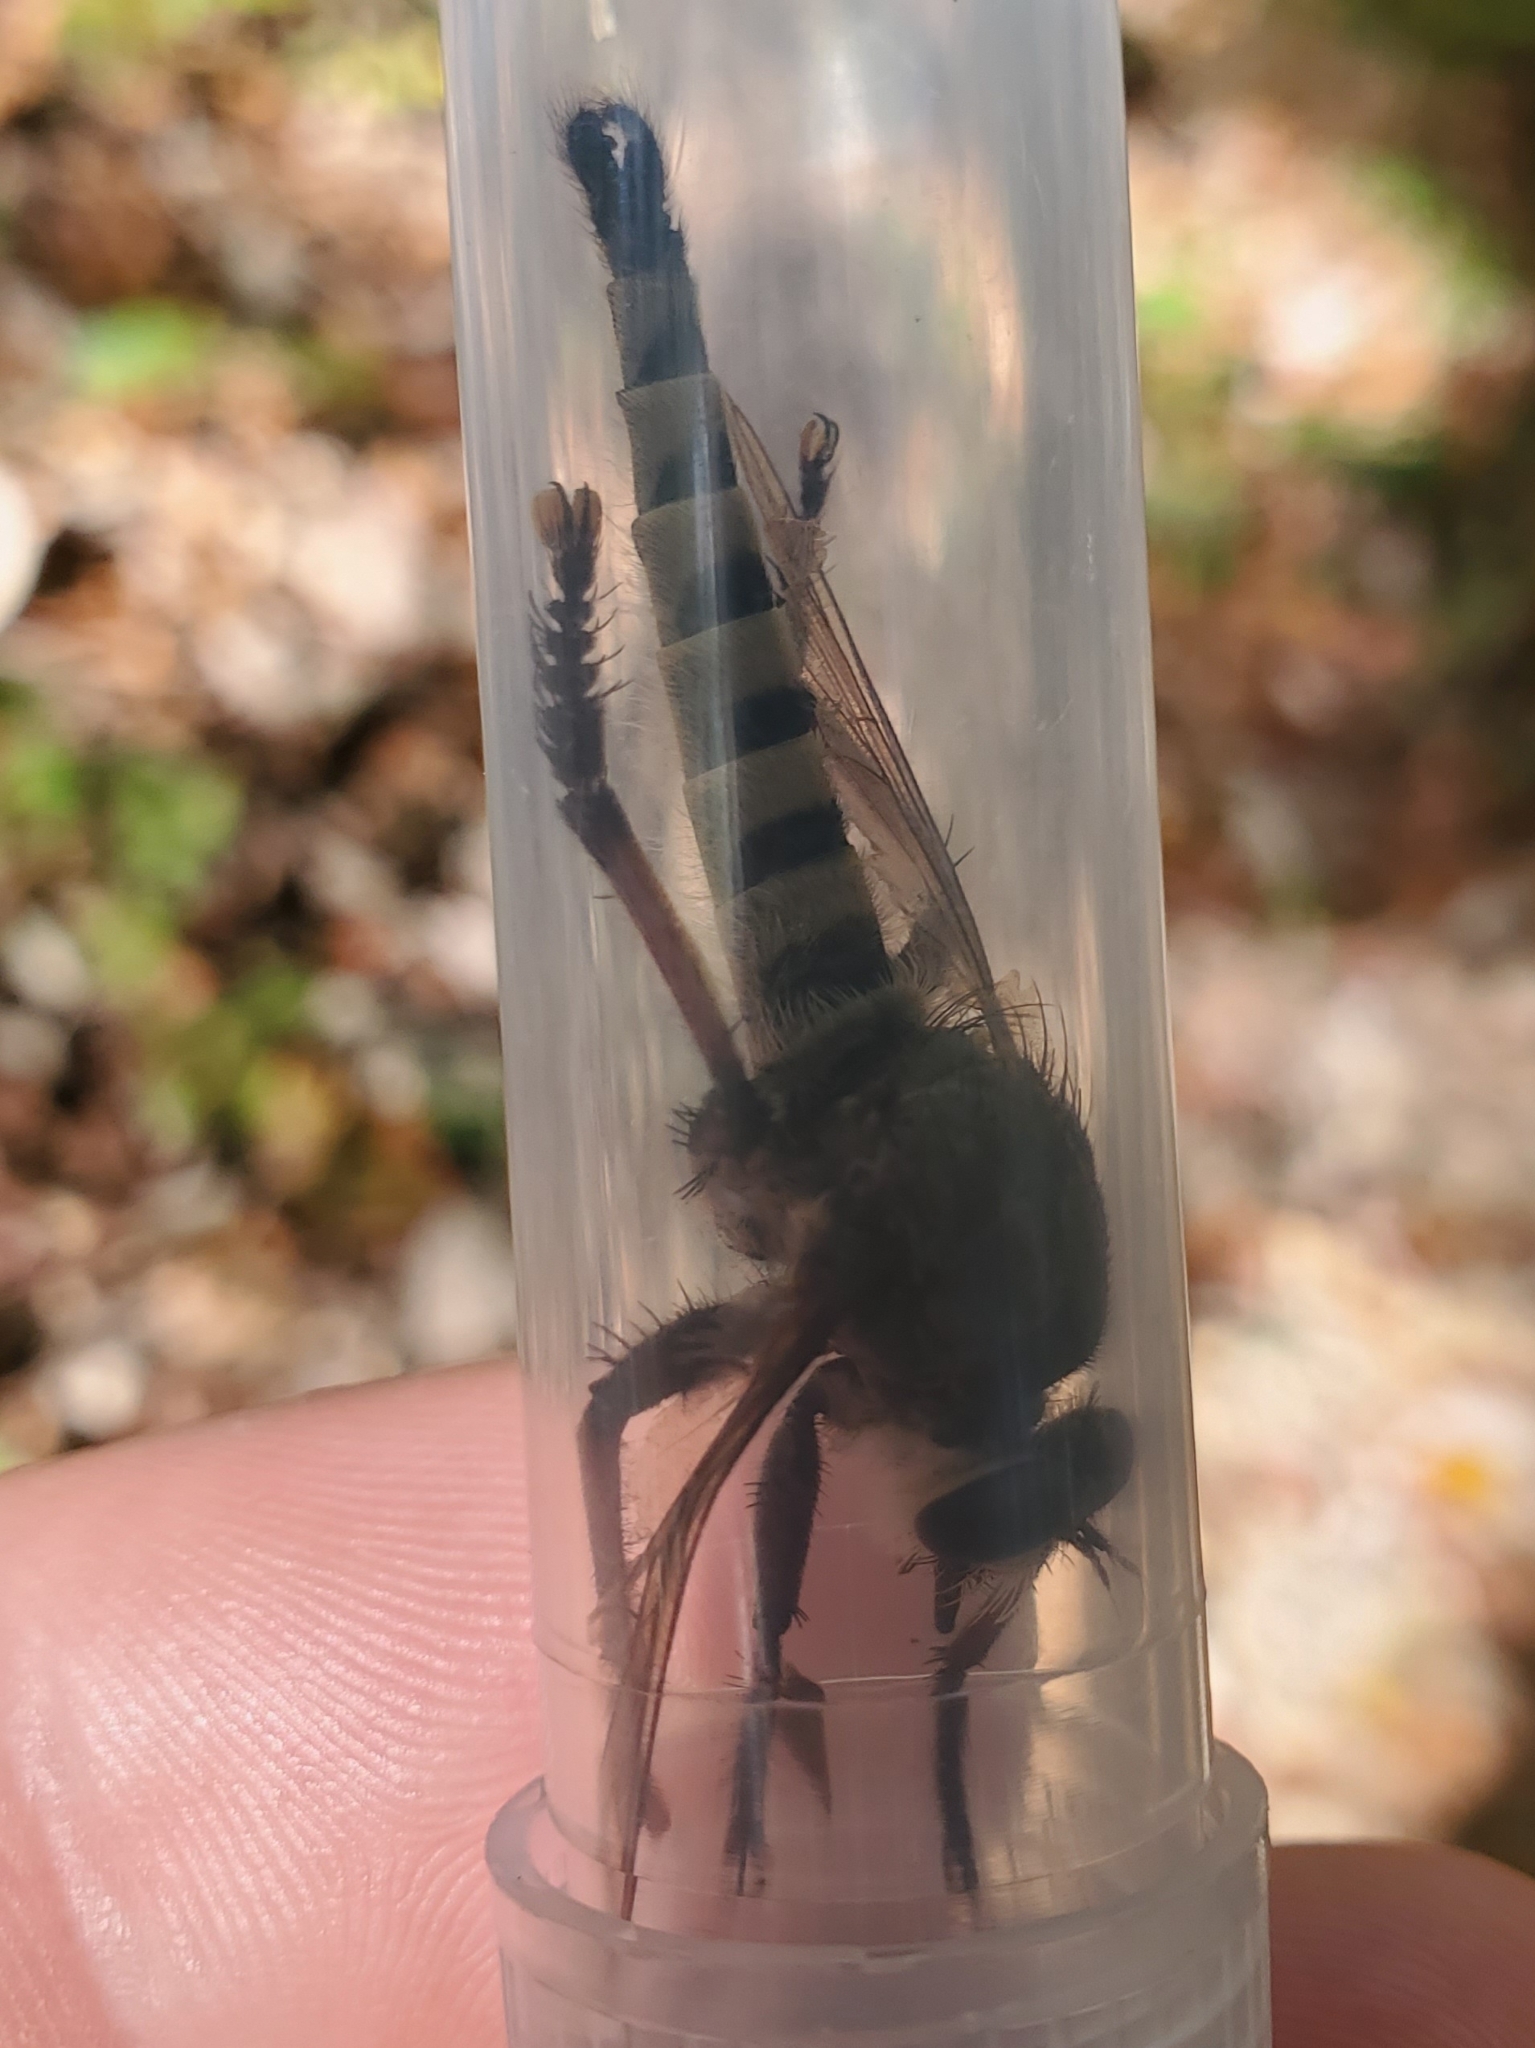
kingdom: Animalia
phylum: Arthropoda
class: Insecta
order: Diptera
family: Asilidae
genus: Promachus
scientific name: Promachus hinei
